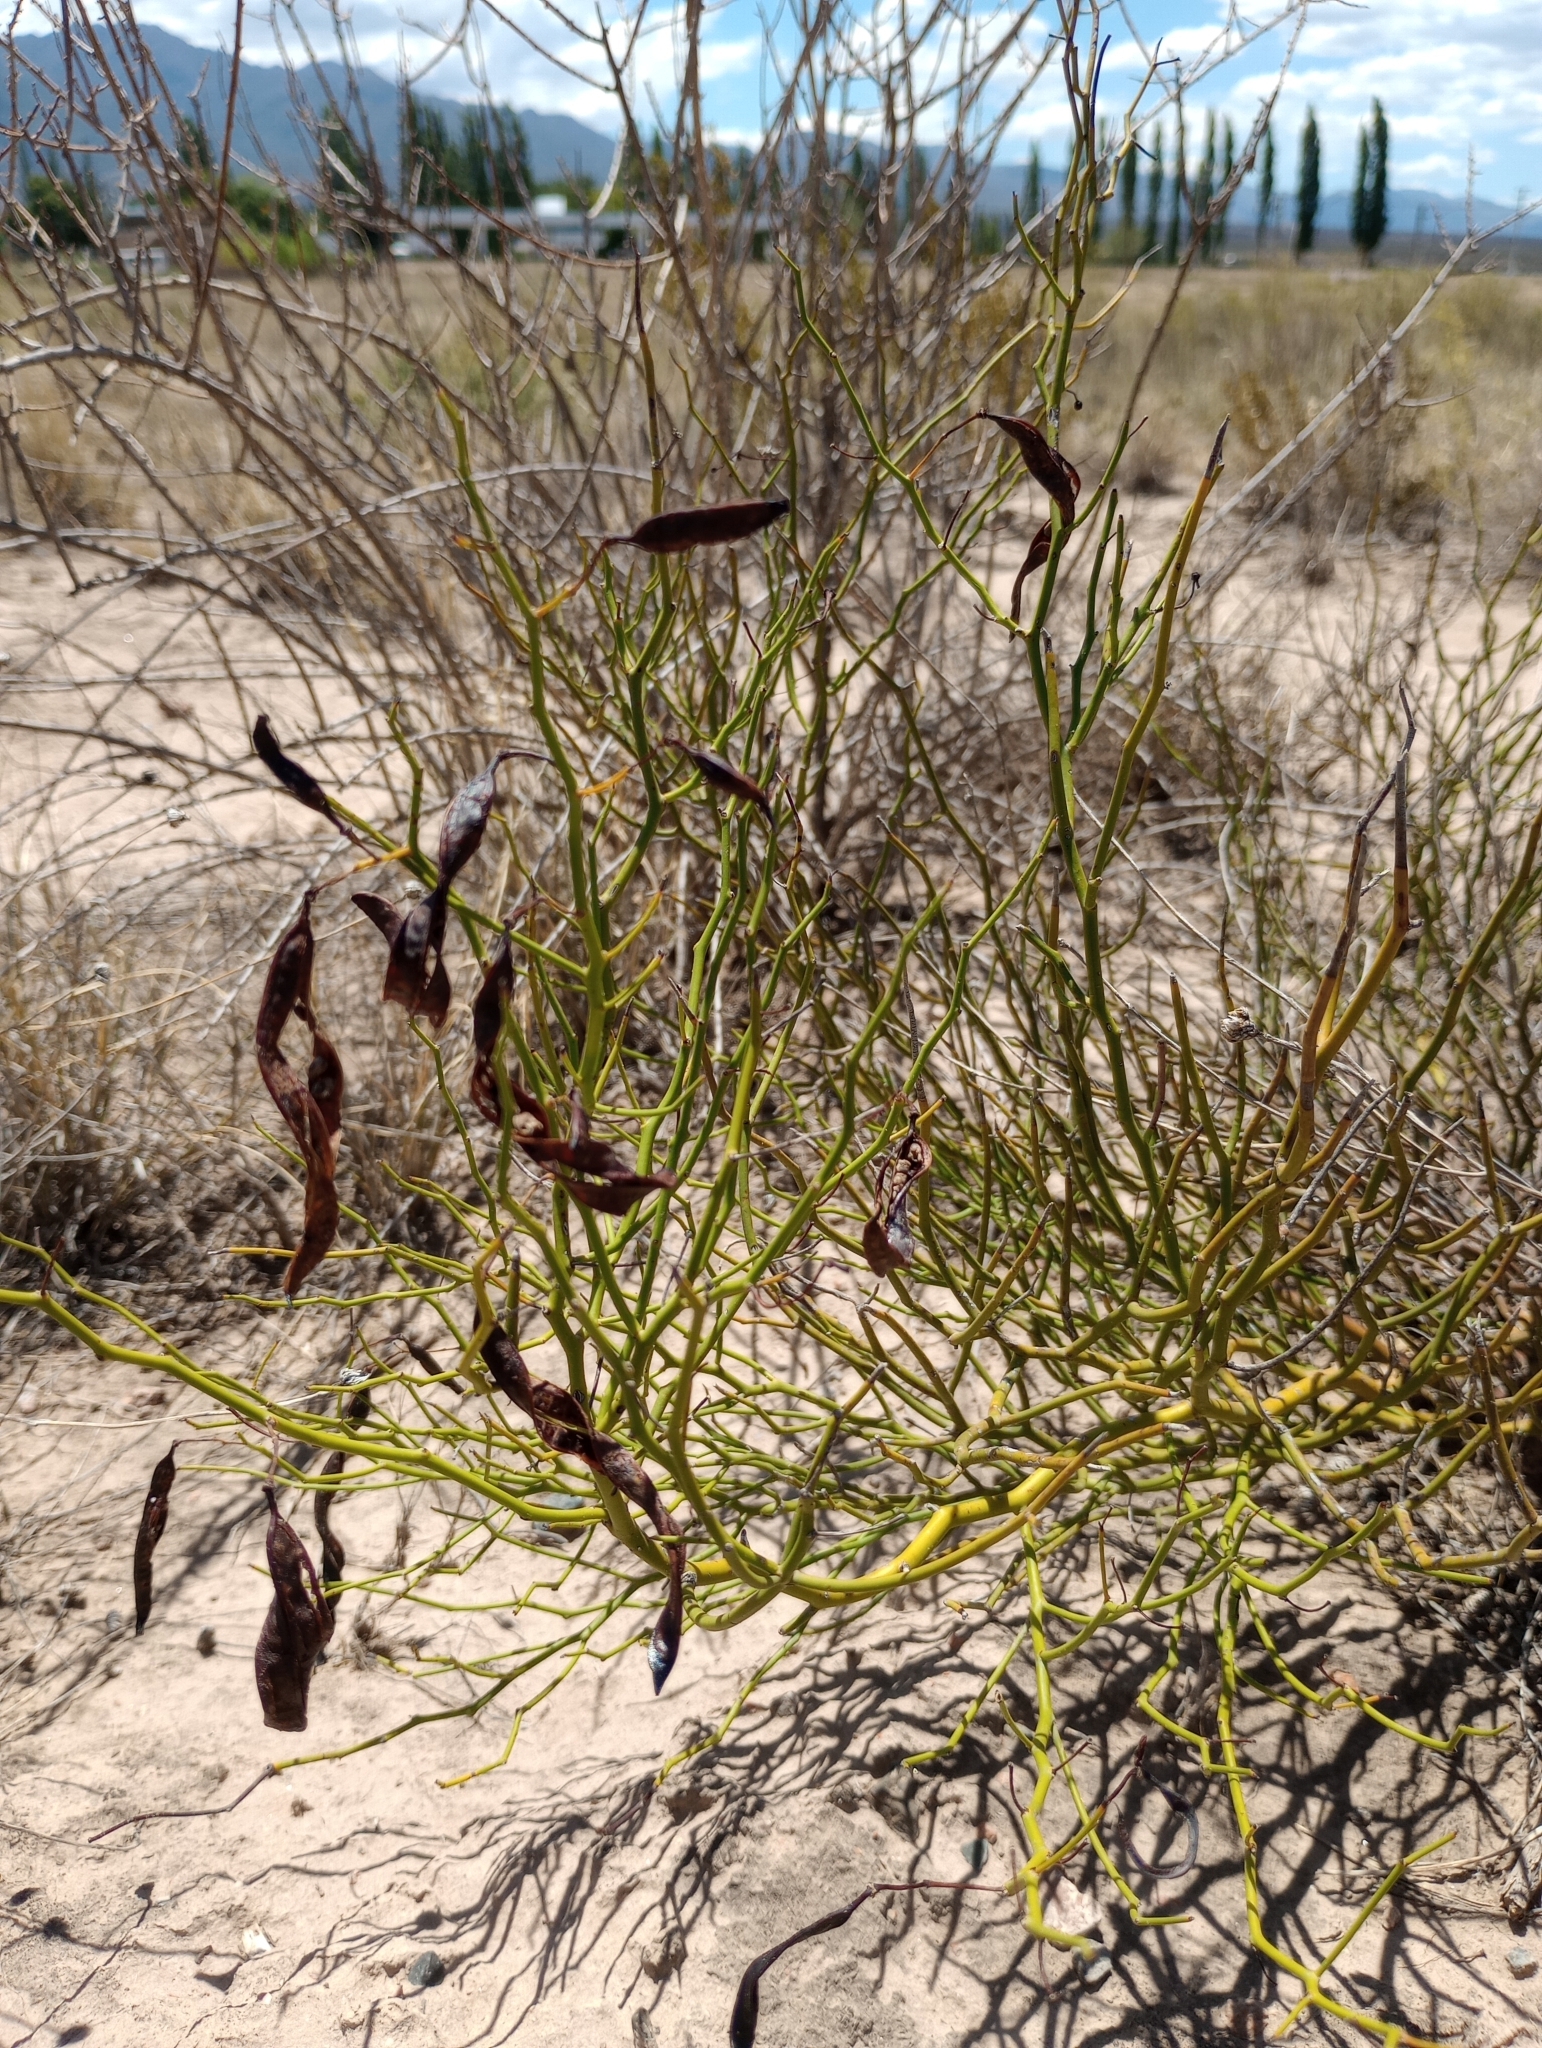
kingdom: Plantae
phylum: Tracheophyta
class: Magnoliopsida
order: Fabales
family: Fabaceae
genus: Senna
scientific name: Senna aphylla
